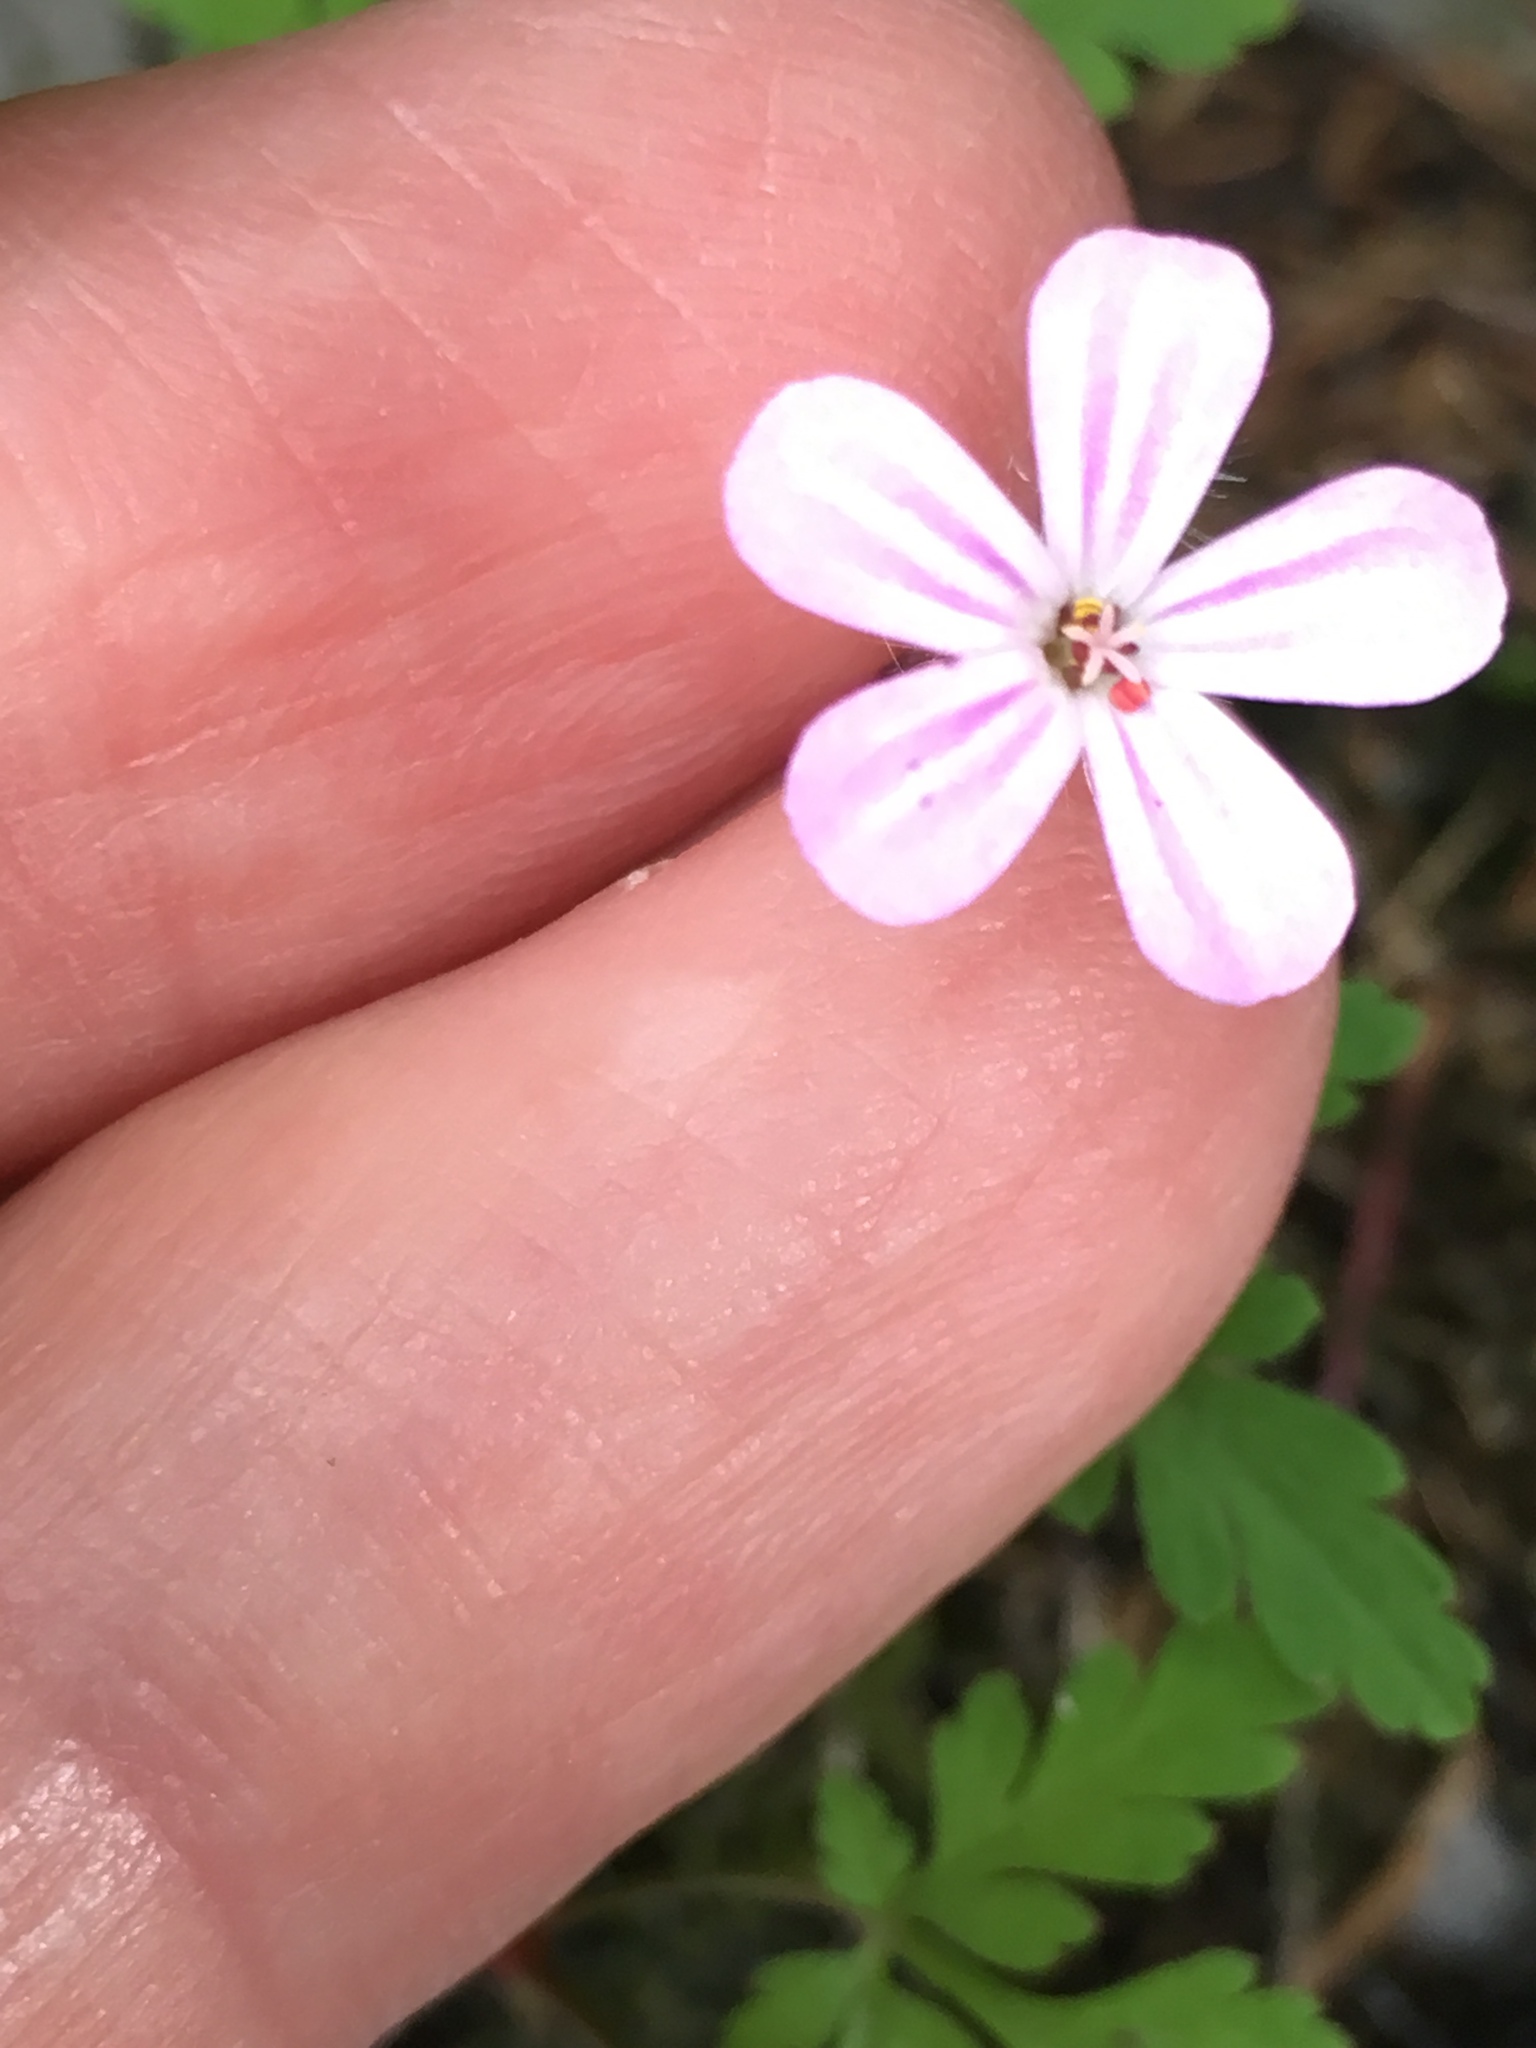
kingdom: Plantae
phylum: Tracheophyta
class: Magnoliopsida
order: Geraniales
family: Geraniaceae
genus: Geranium
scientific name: Geranium robertianum
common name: Herb-robert
